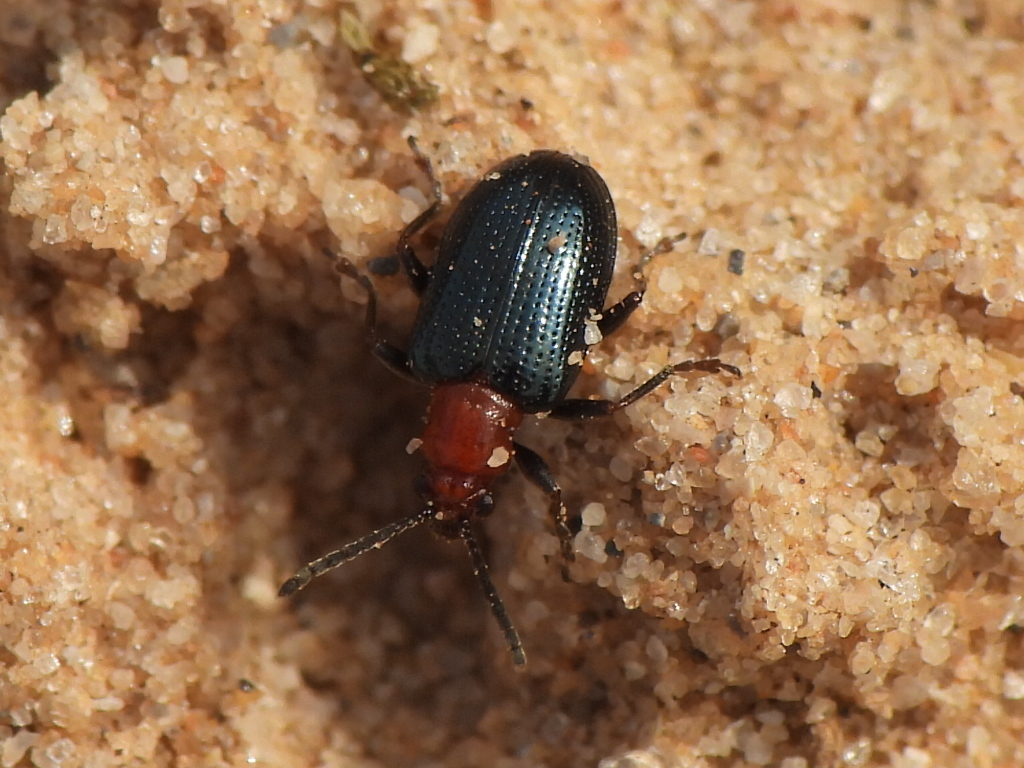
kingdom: Animalia
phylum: Arthropoda
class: Insecta
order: Coleoptera
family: Chrysomelidae
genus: Oulema
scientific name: Oulema variabilis
